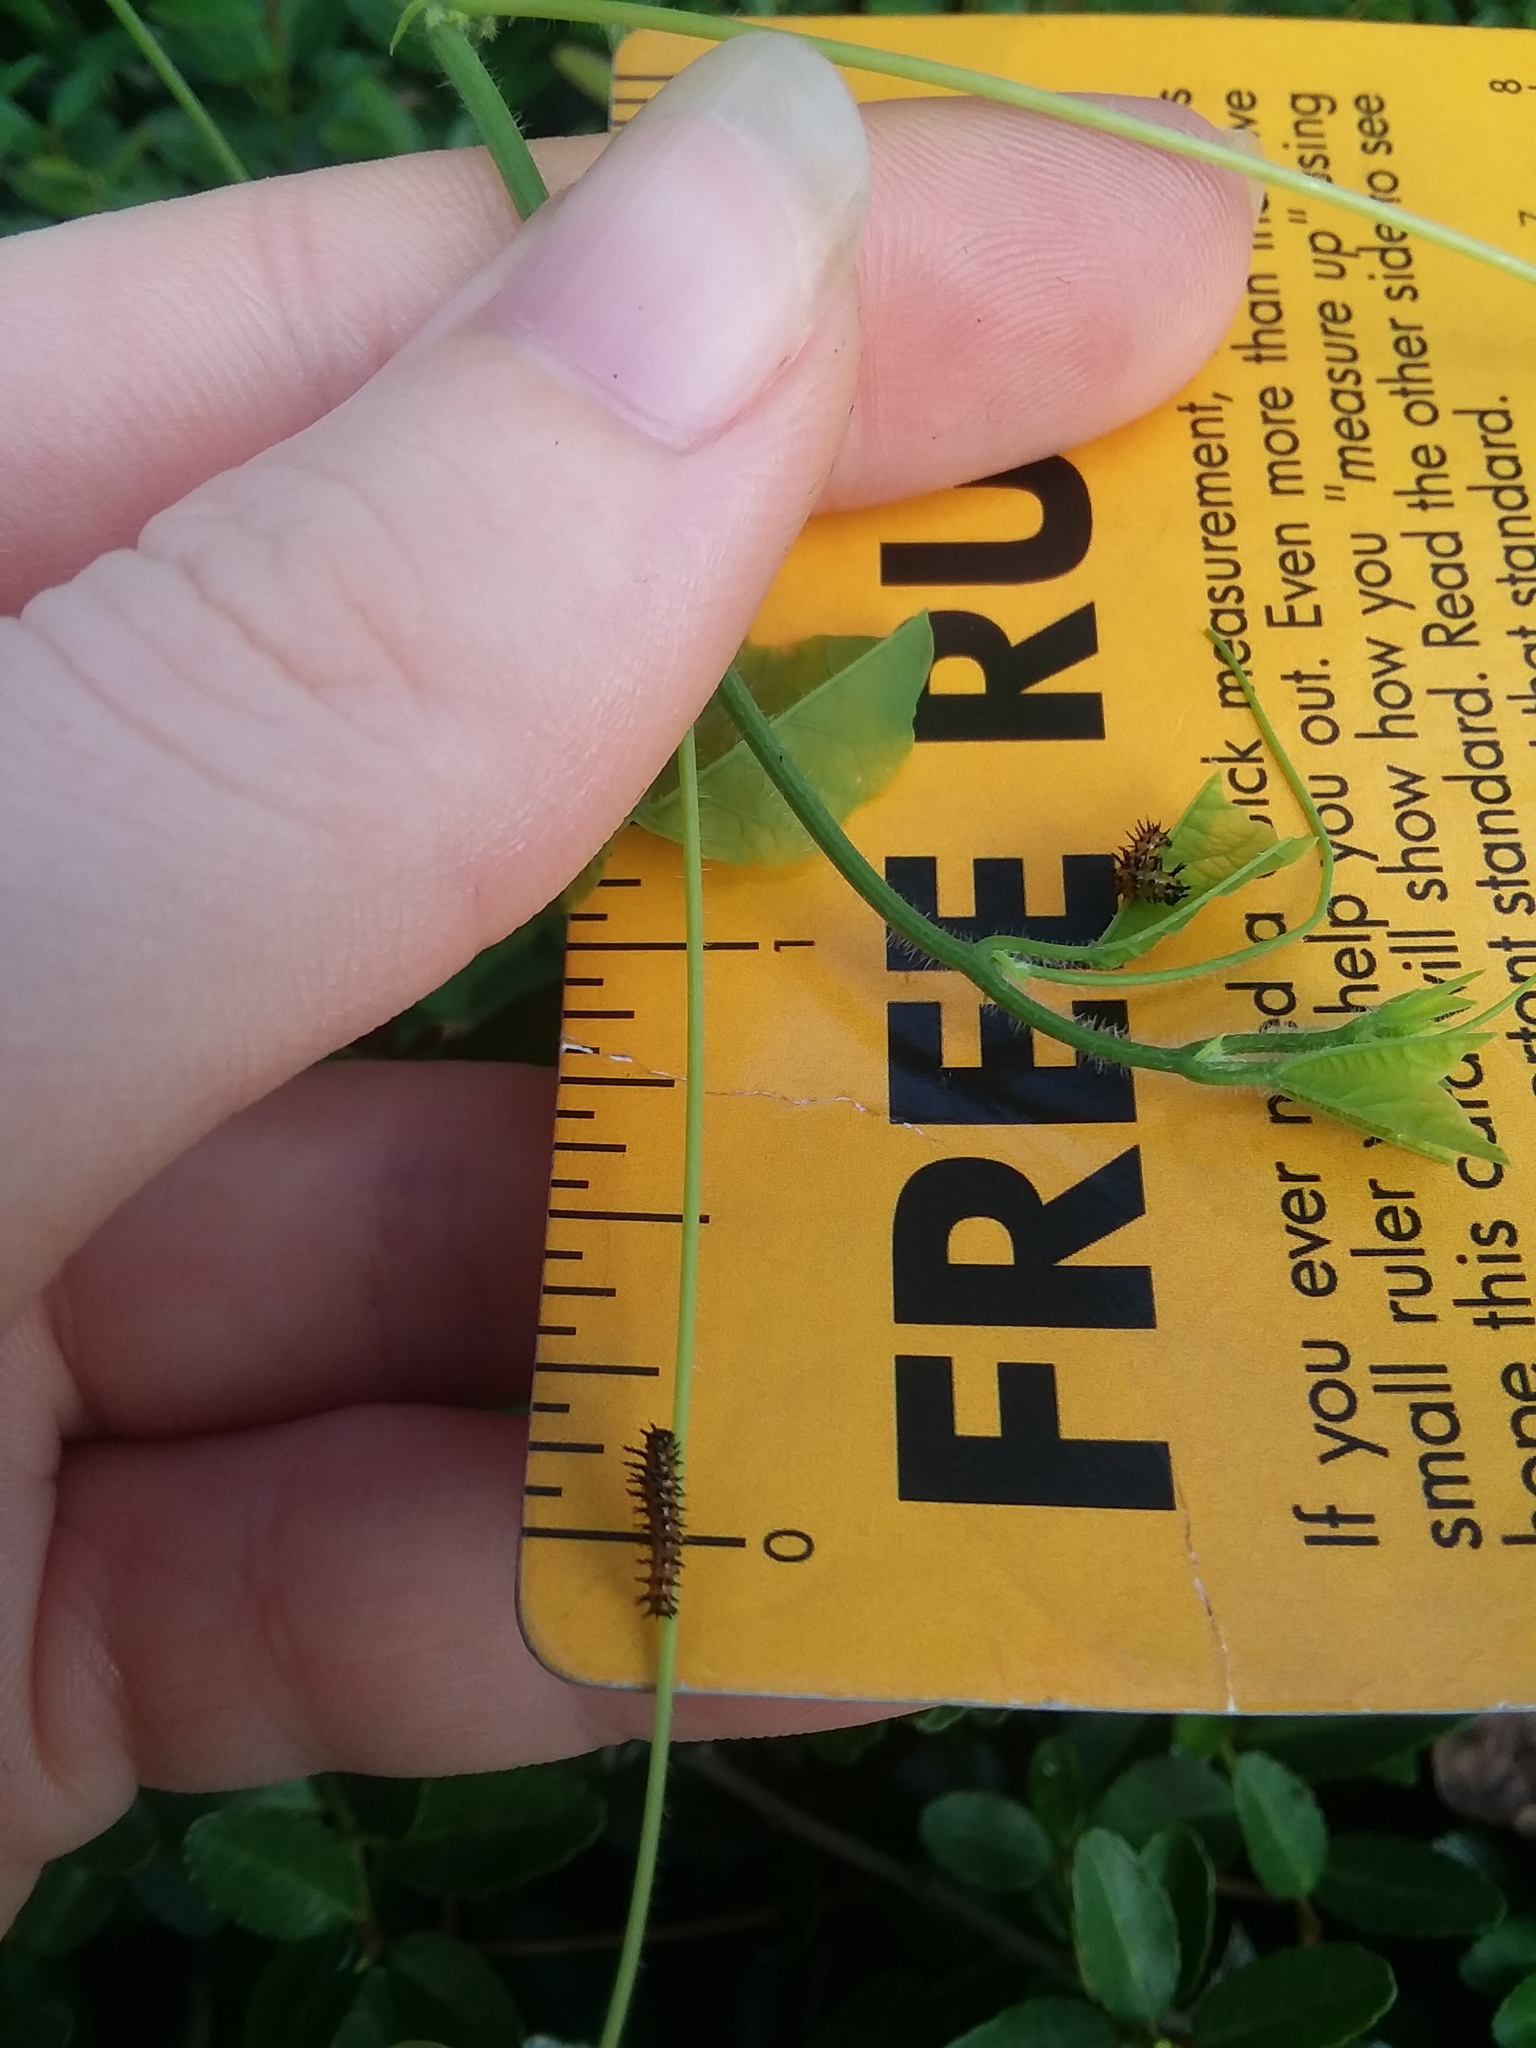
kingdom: Animalia
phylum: Arthropoda
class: Insecta
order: Lepidoptera
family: Nymphalidae
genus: Dione
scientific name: Dione vanillae
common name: Gulf fritillary
